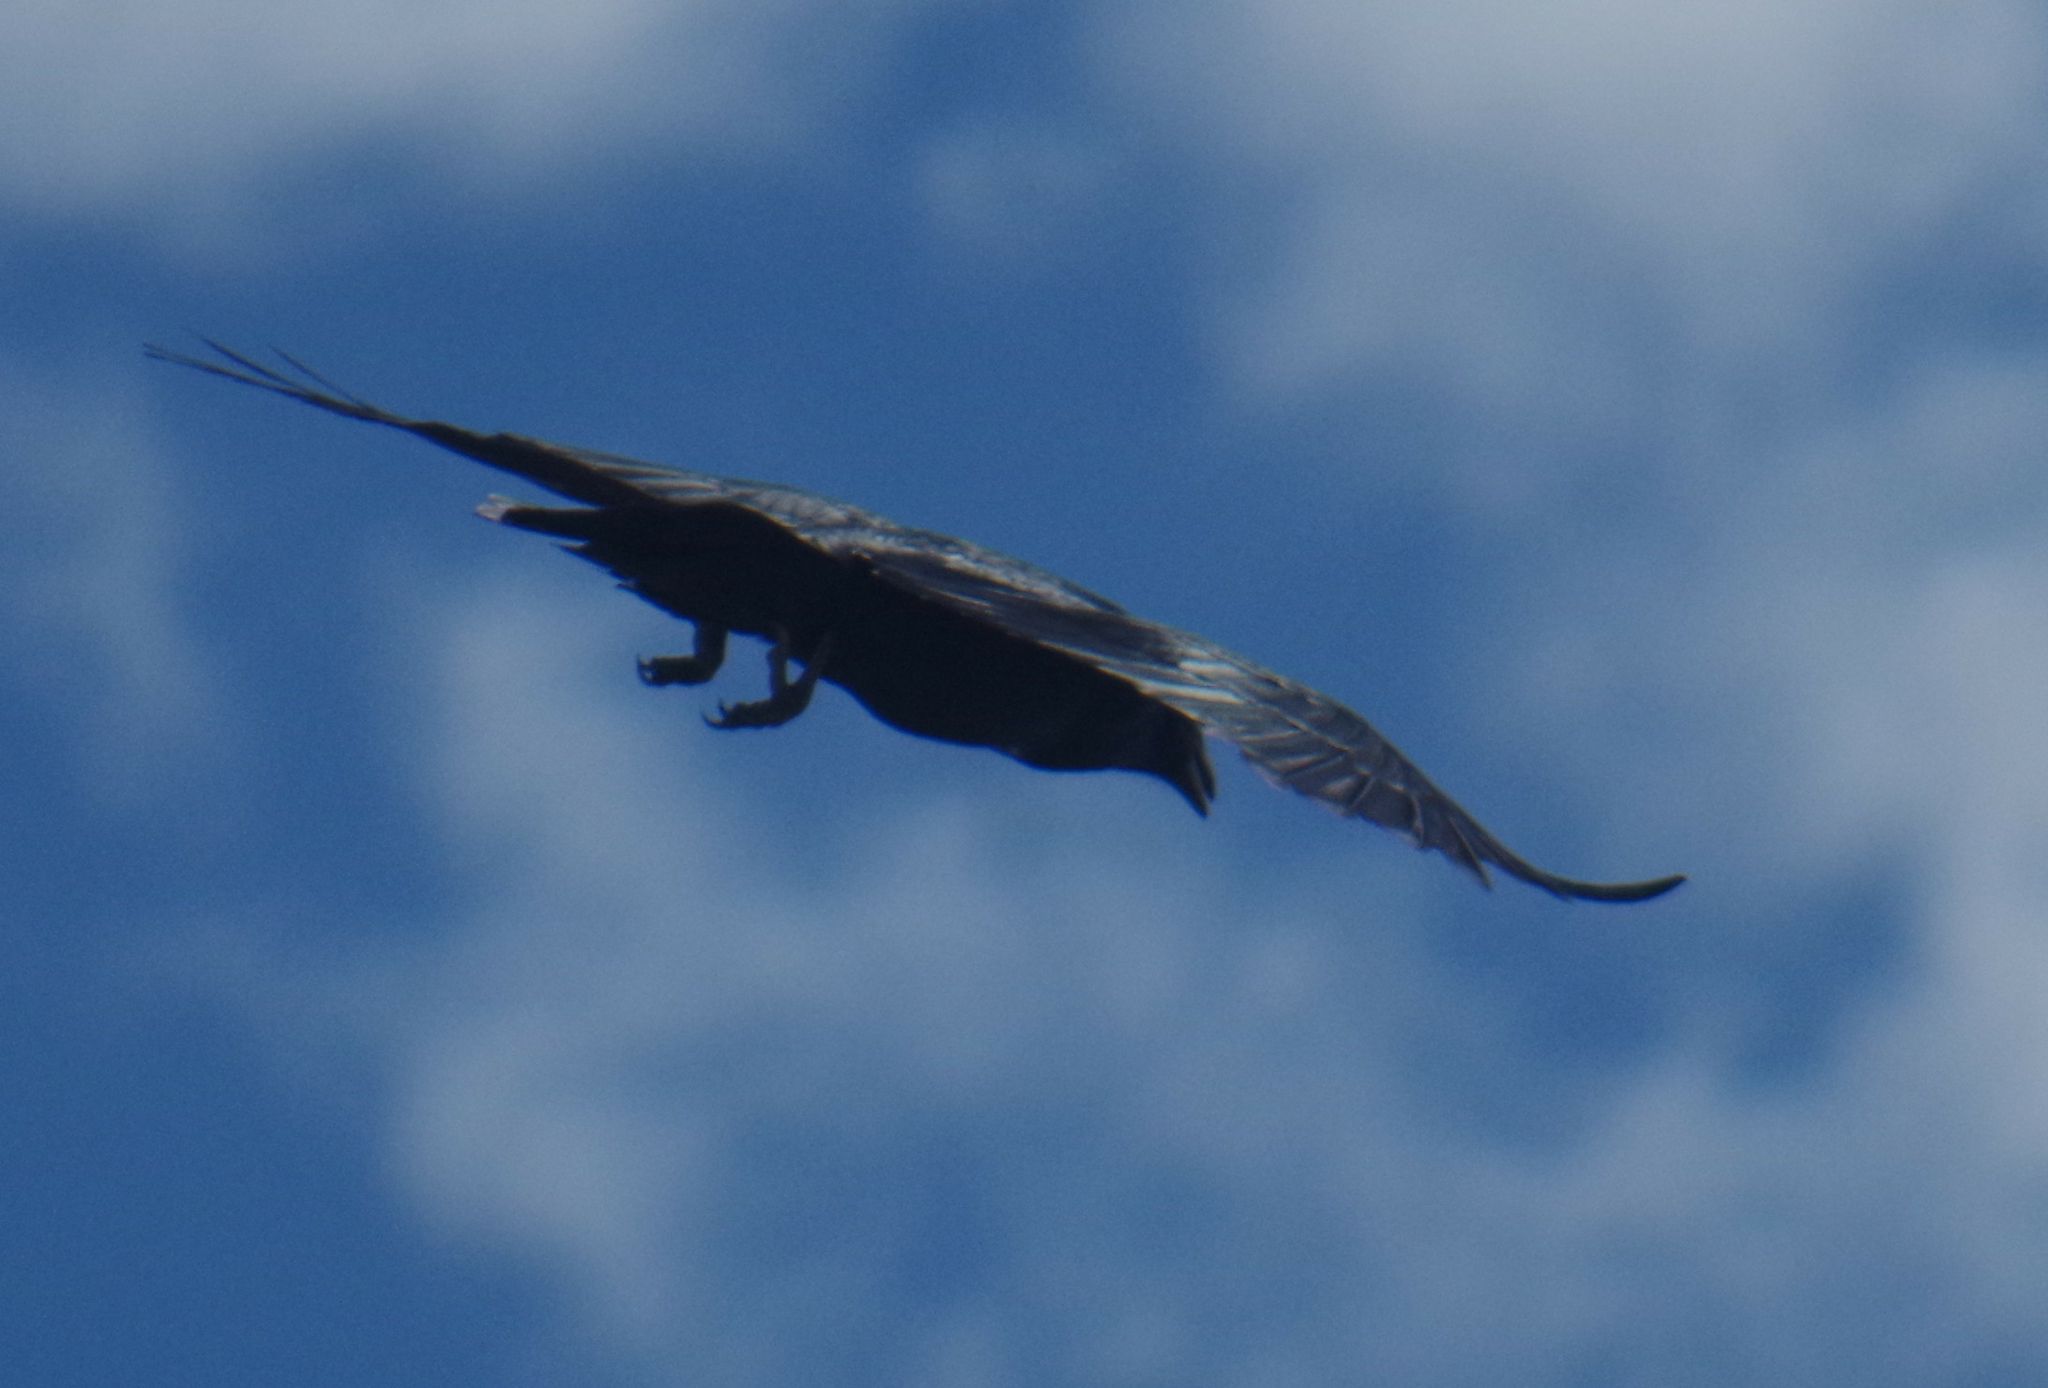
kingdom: Animalia
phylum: Chordata
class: Aves
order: Passeriformes
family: Corvidae
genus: Corvus
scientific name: Corvus brachyrhynchos
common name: American crow
